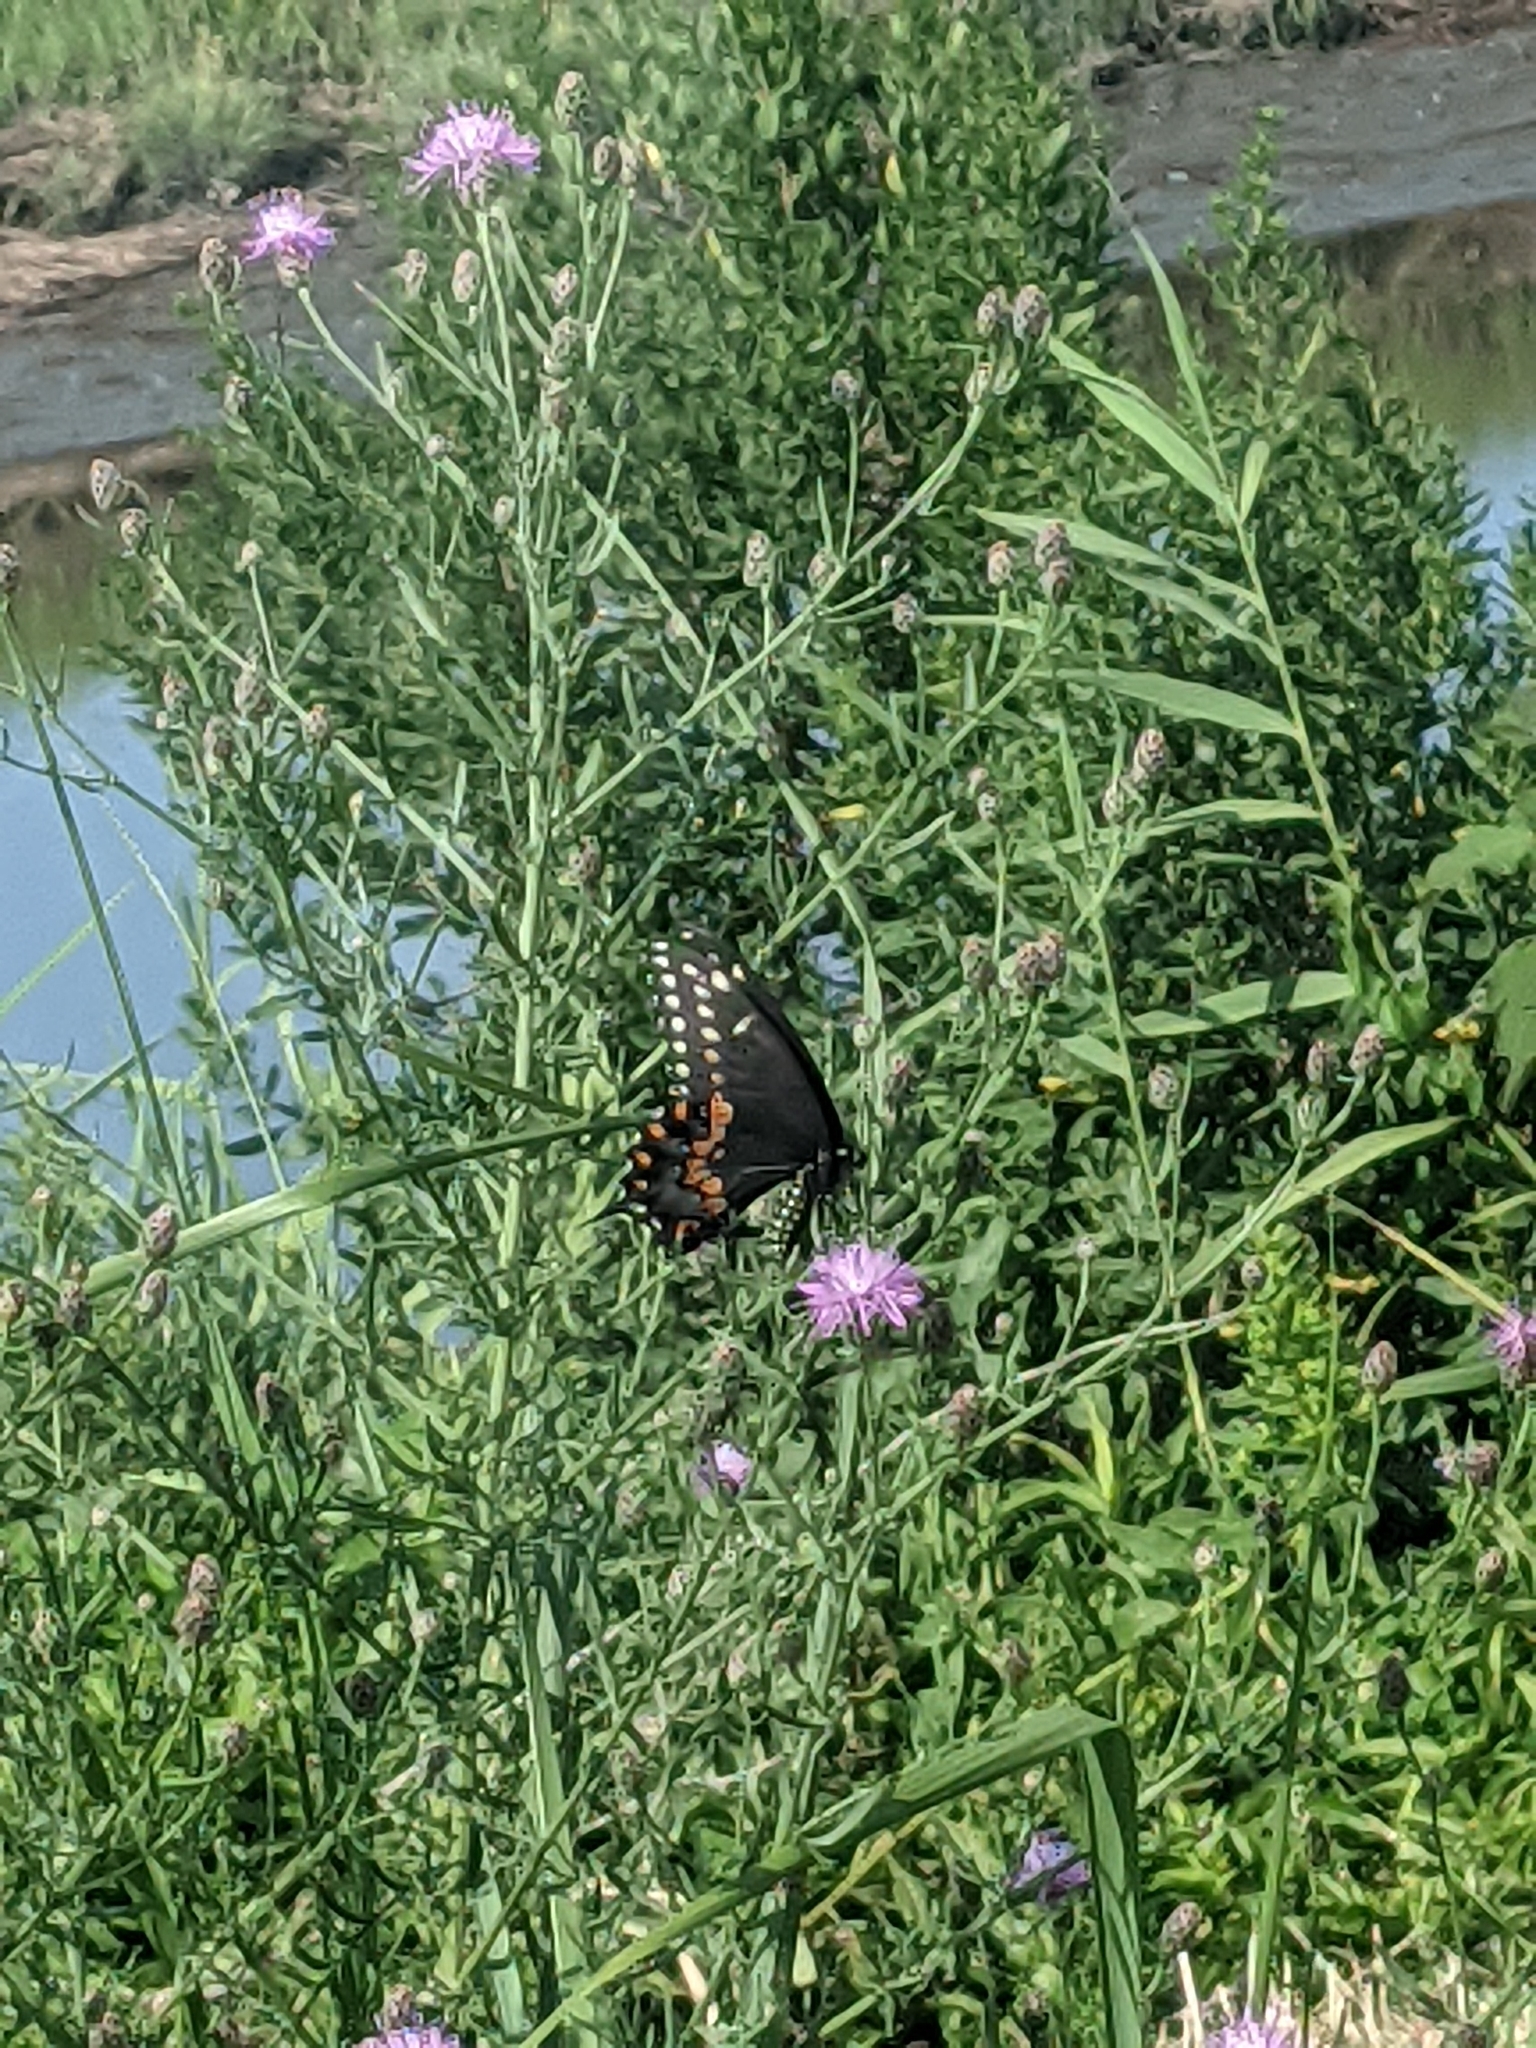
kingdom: Animalia
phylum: Arthropoda
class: Insecta
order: Lepidoptera
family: Papilionidae
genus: Papilio
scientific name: Papilio polyxenes
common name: Black swallowtail
